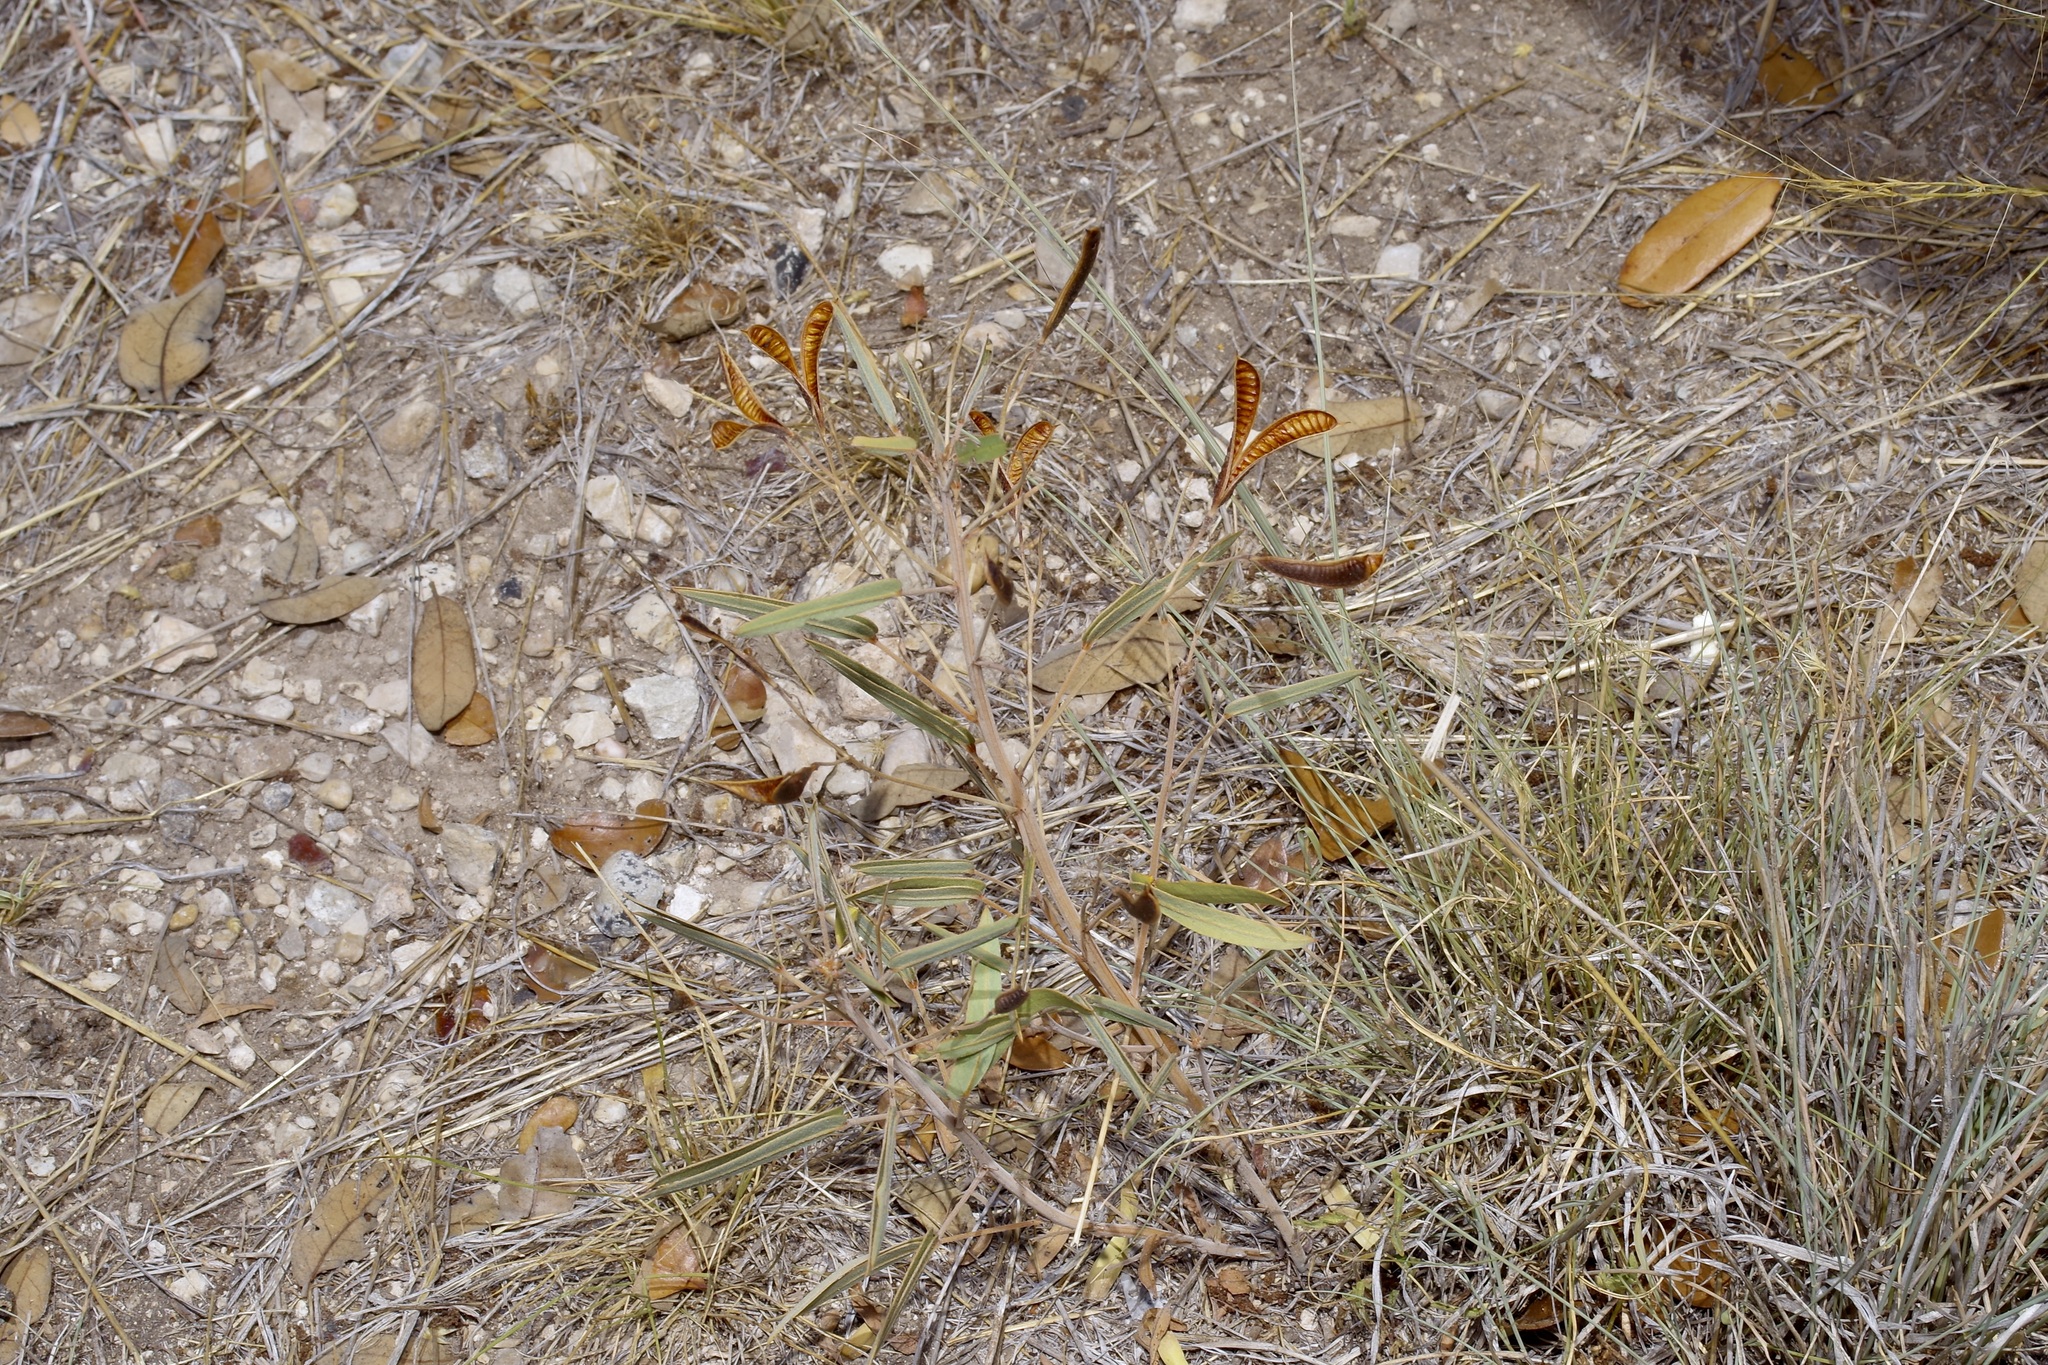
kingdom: Plantae
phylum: Tracheophyta
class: Magnoliopsida
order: Fabales
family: Fabaceae
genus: Senna
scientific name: Senna roemeriana
